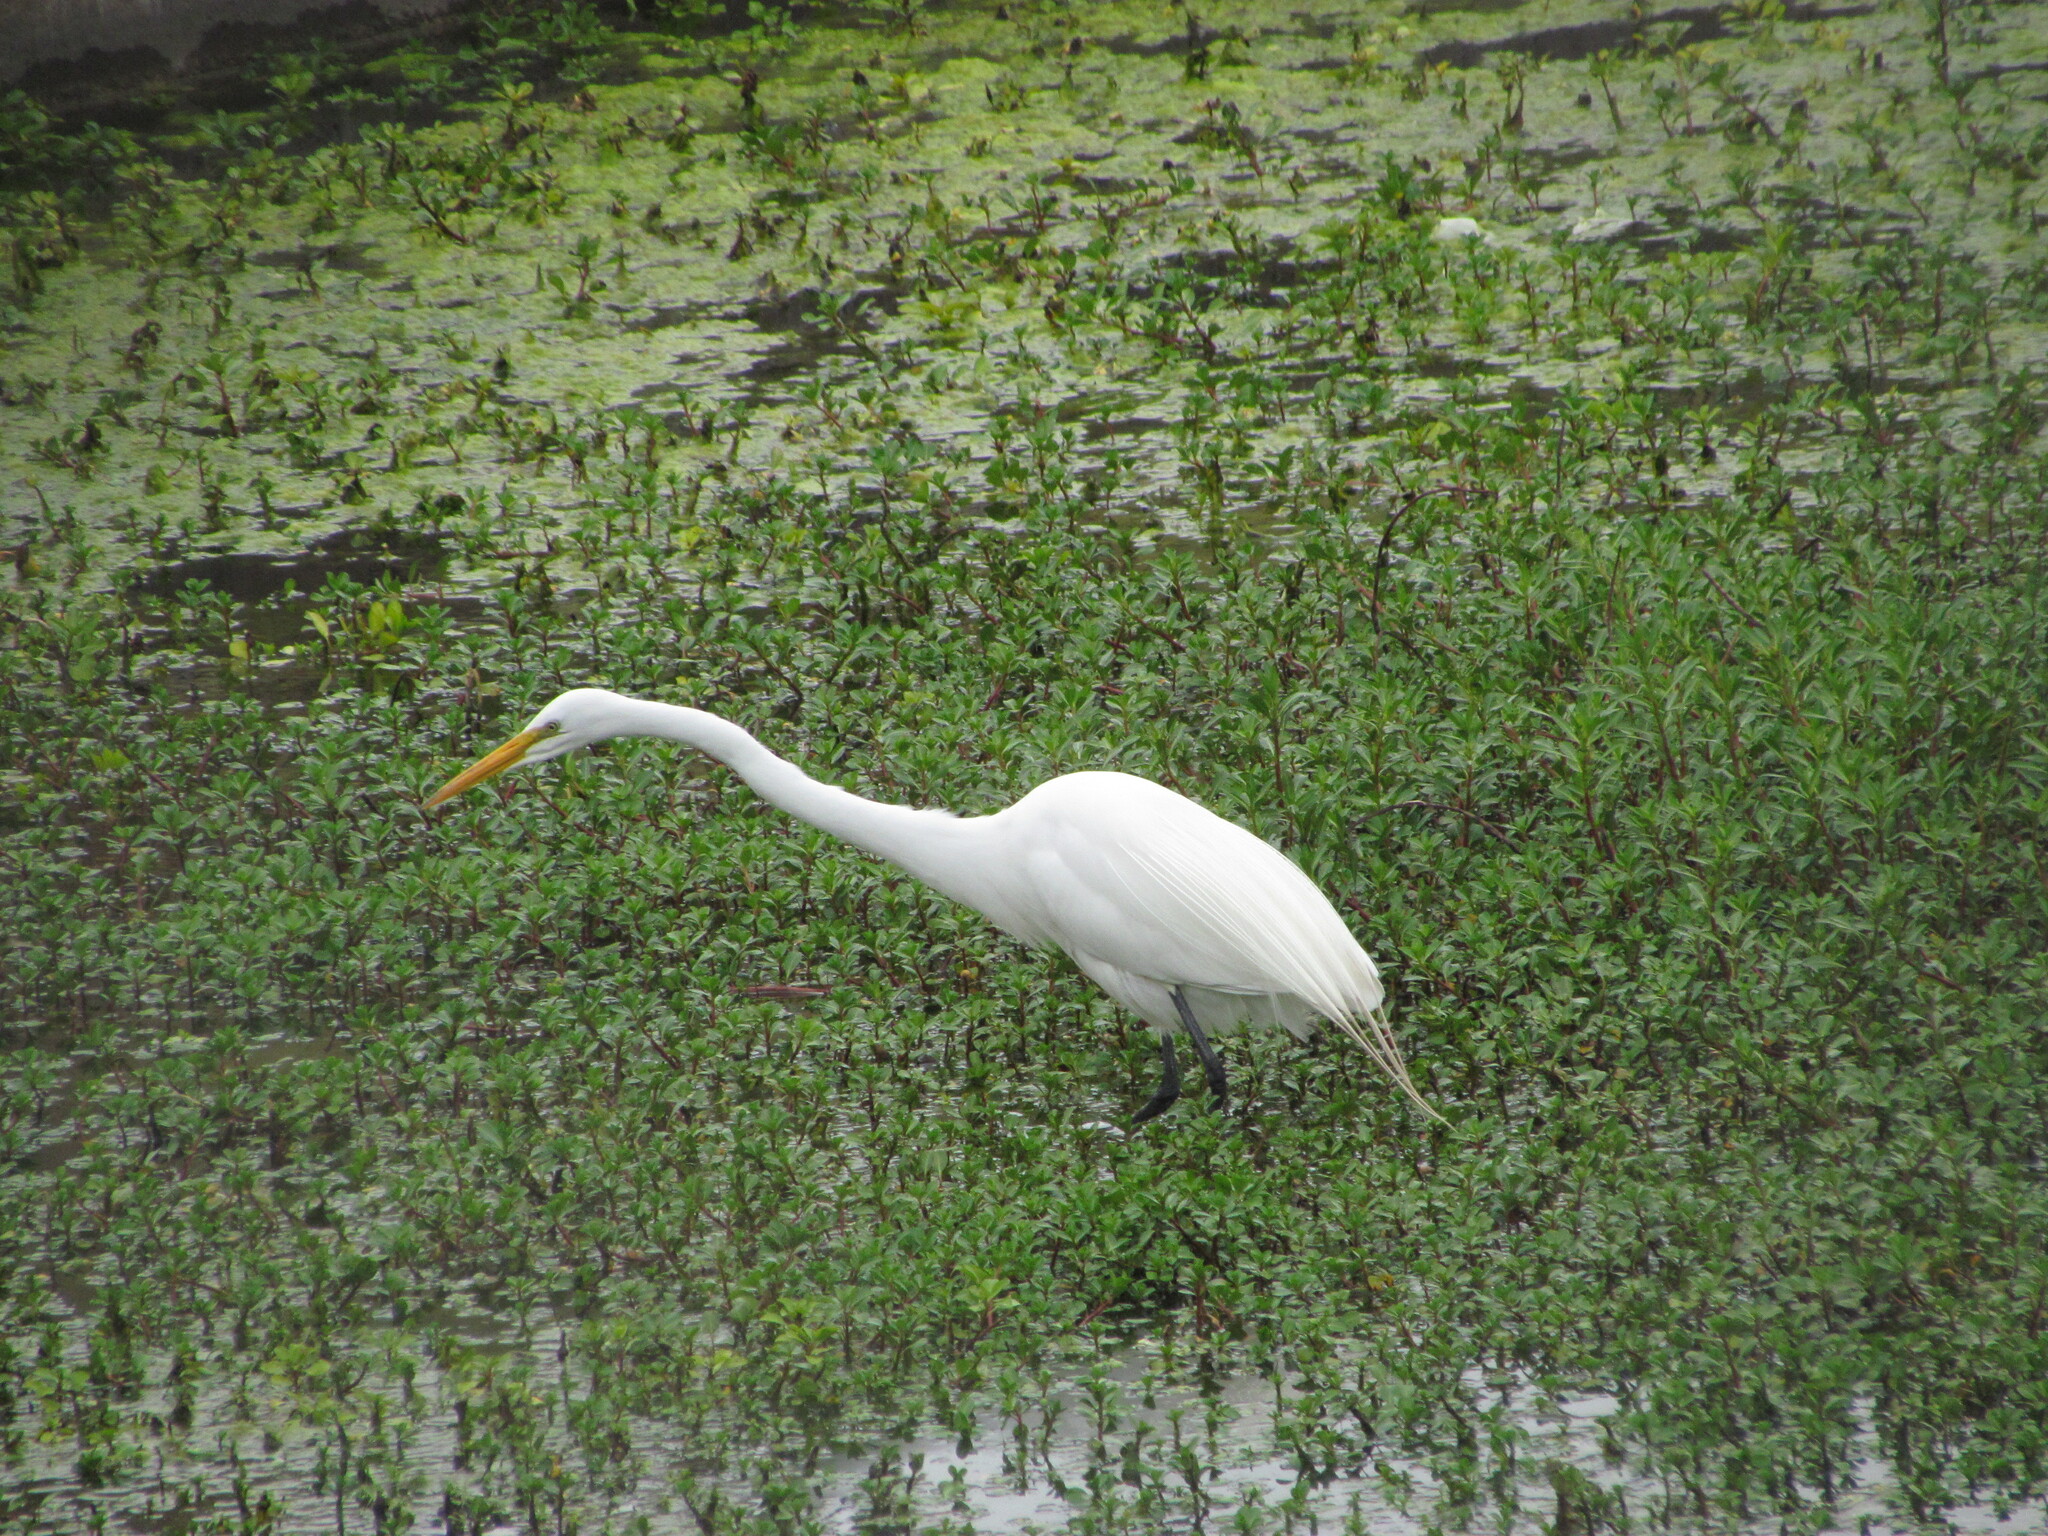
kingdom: Animalia
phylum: Chordata
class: Aves
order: Pelecaniformes
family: Ardeidae
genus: Ardea
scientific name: Ardea alba
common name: Great egret
